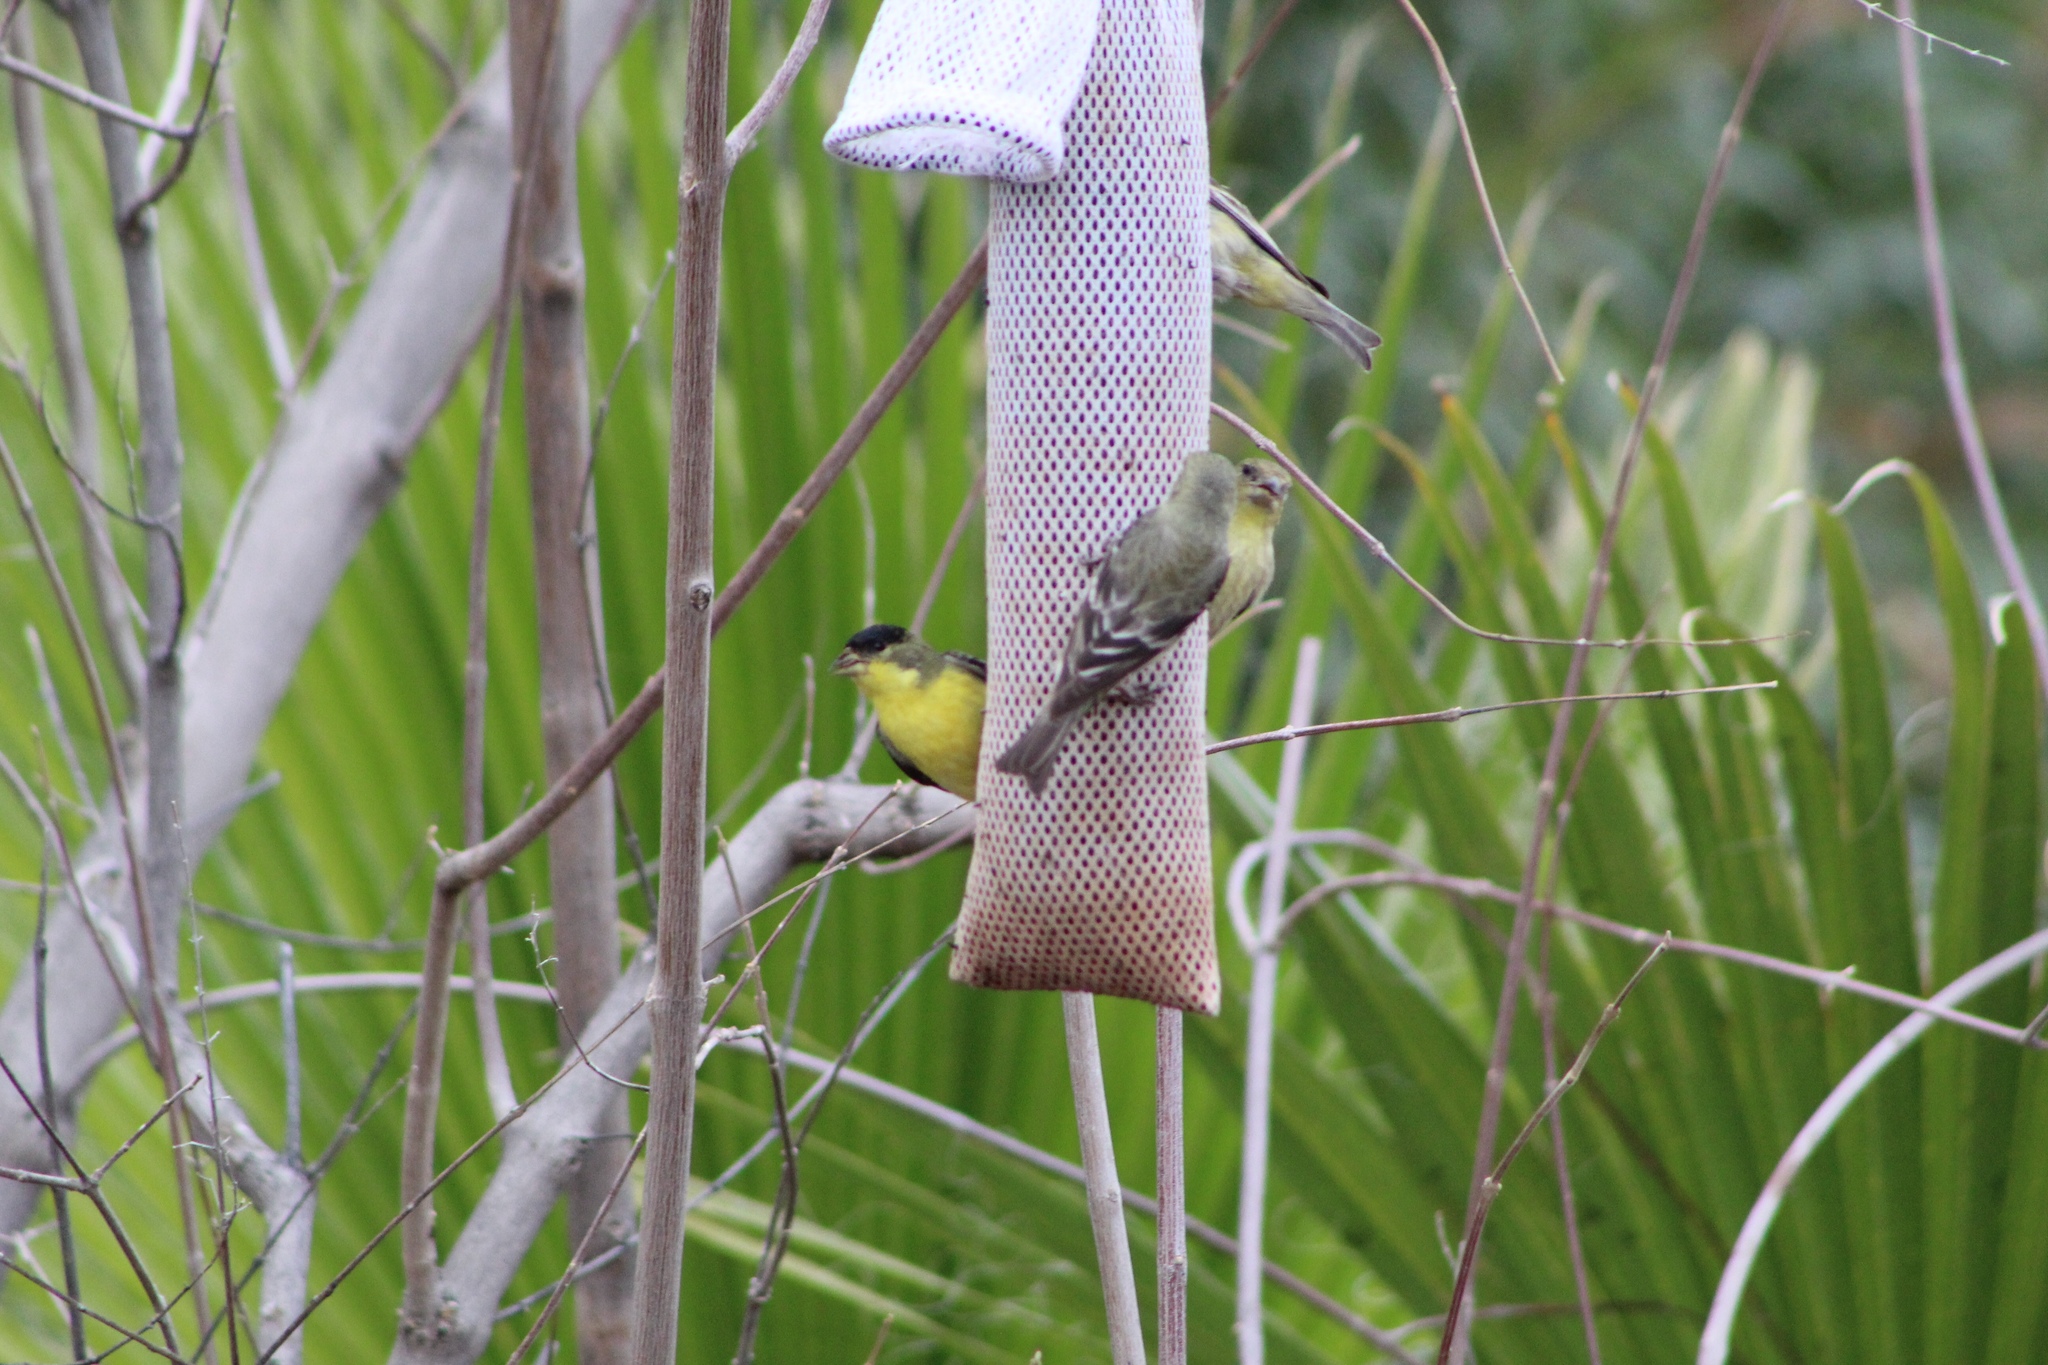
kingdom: Animalia
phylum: Chordata
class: Aves
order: Passeriformes
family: Fringillidae
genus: Spinus
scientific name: Spinus psaltria
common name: Lesser goldfinch
